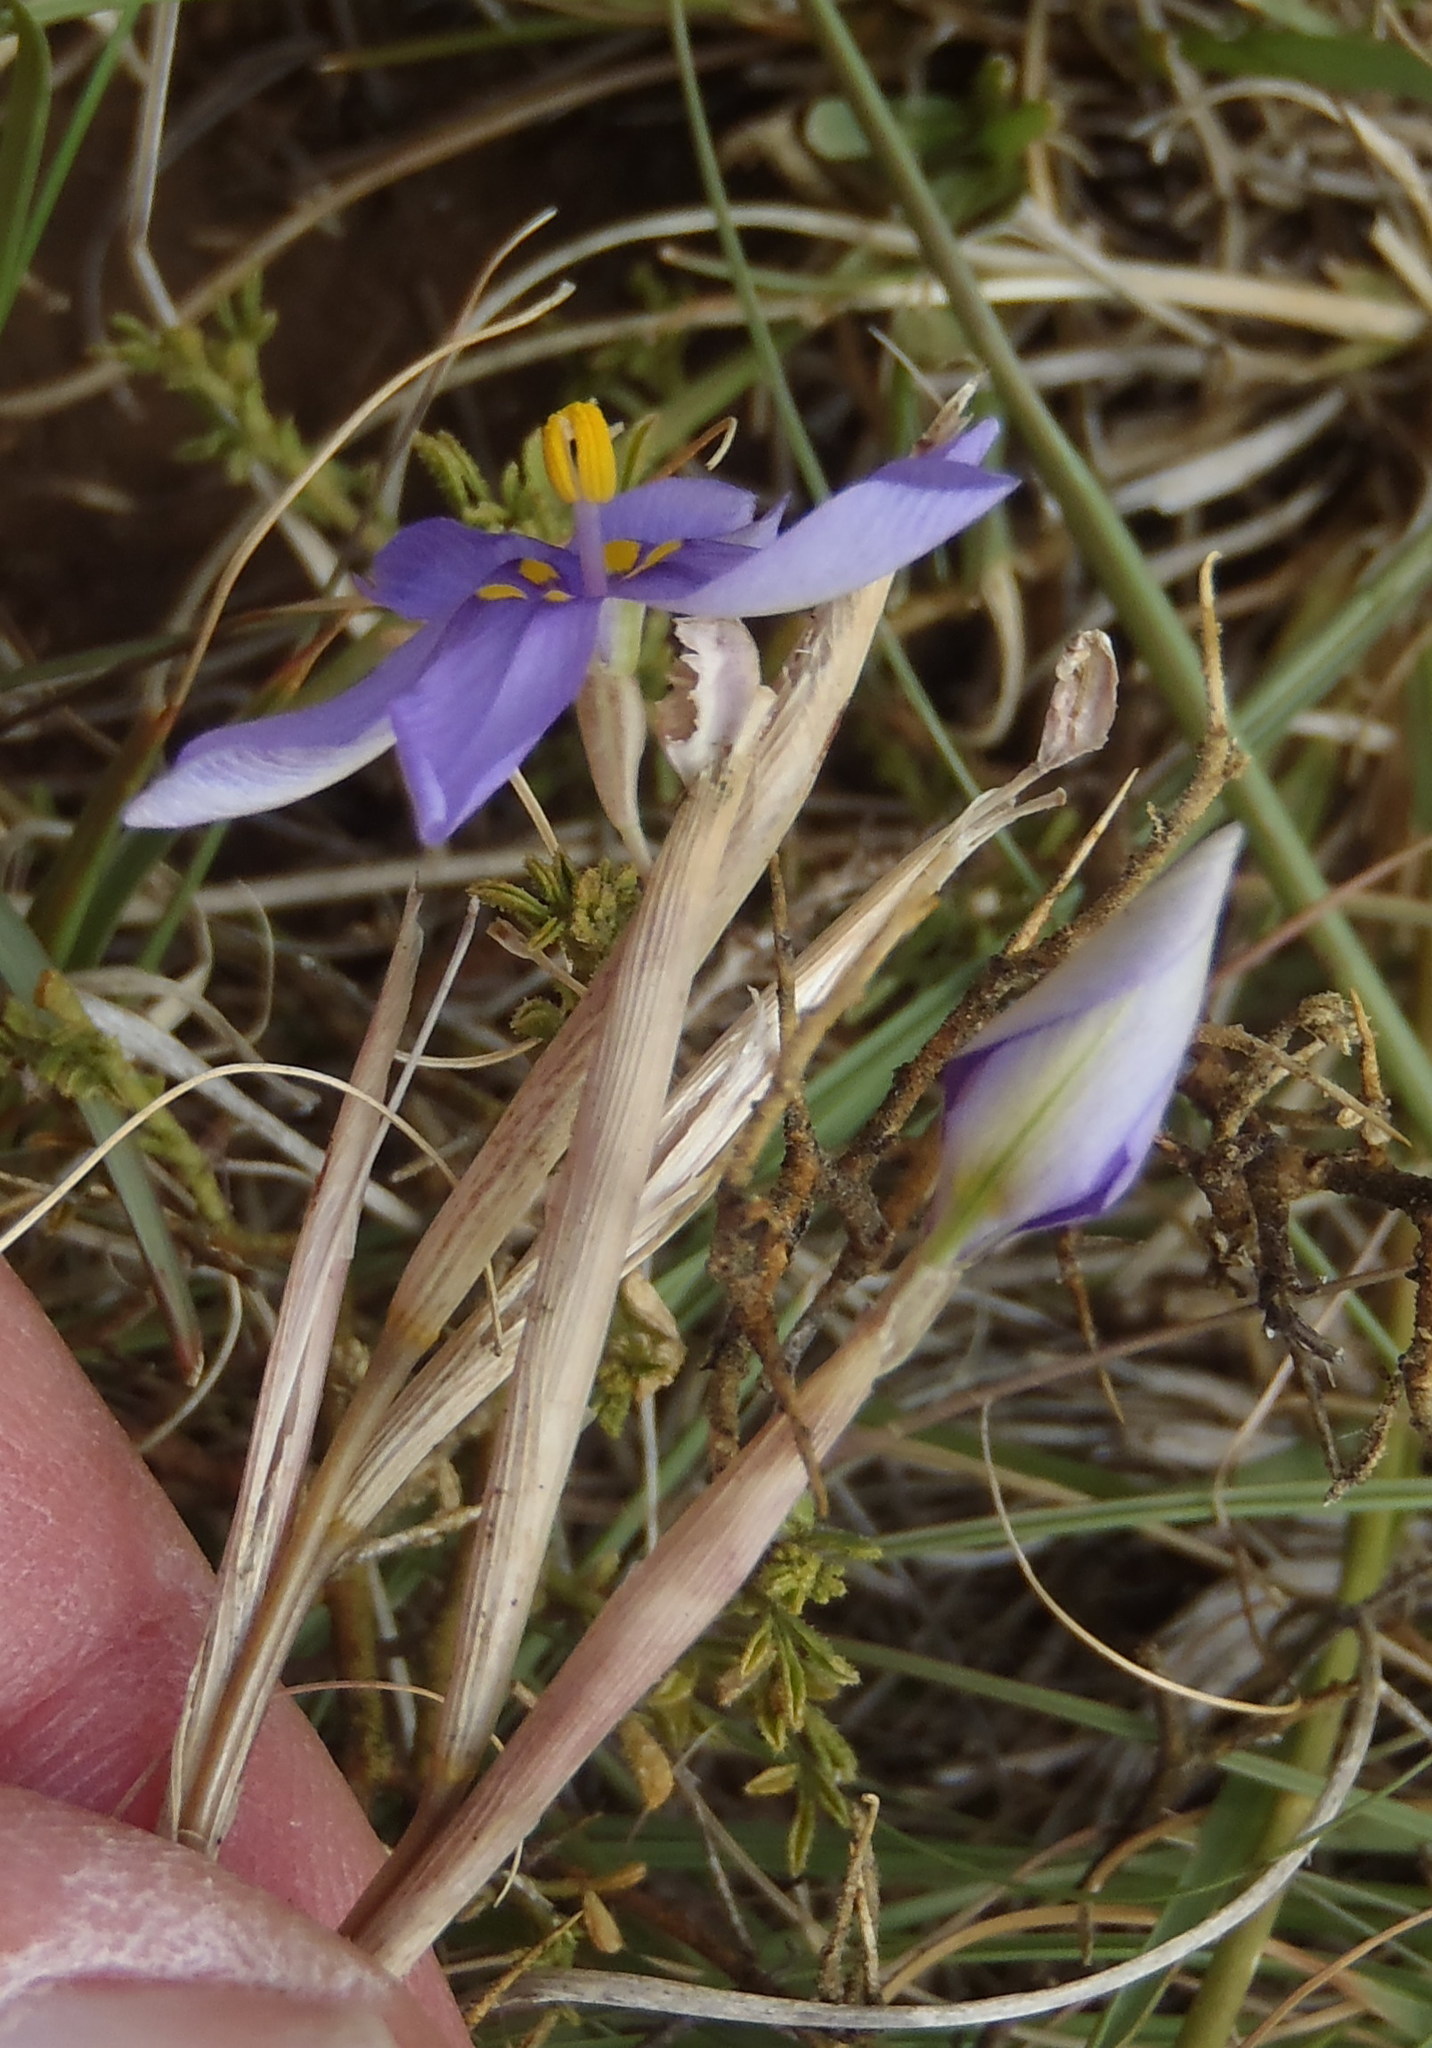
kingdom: Plantae
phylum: Tracheophyta
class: Liliopsida
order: Asparagales
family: Iridaceae
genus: Moraea
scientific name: Moraea crispa
